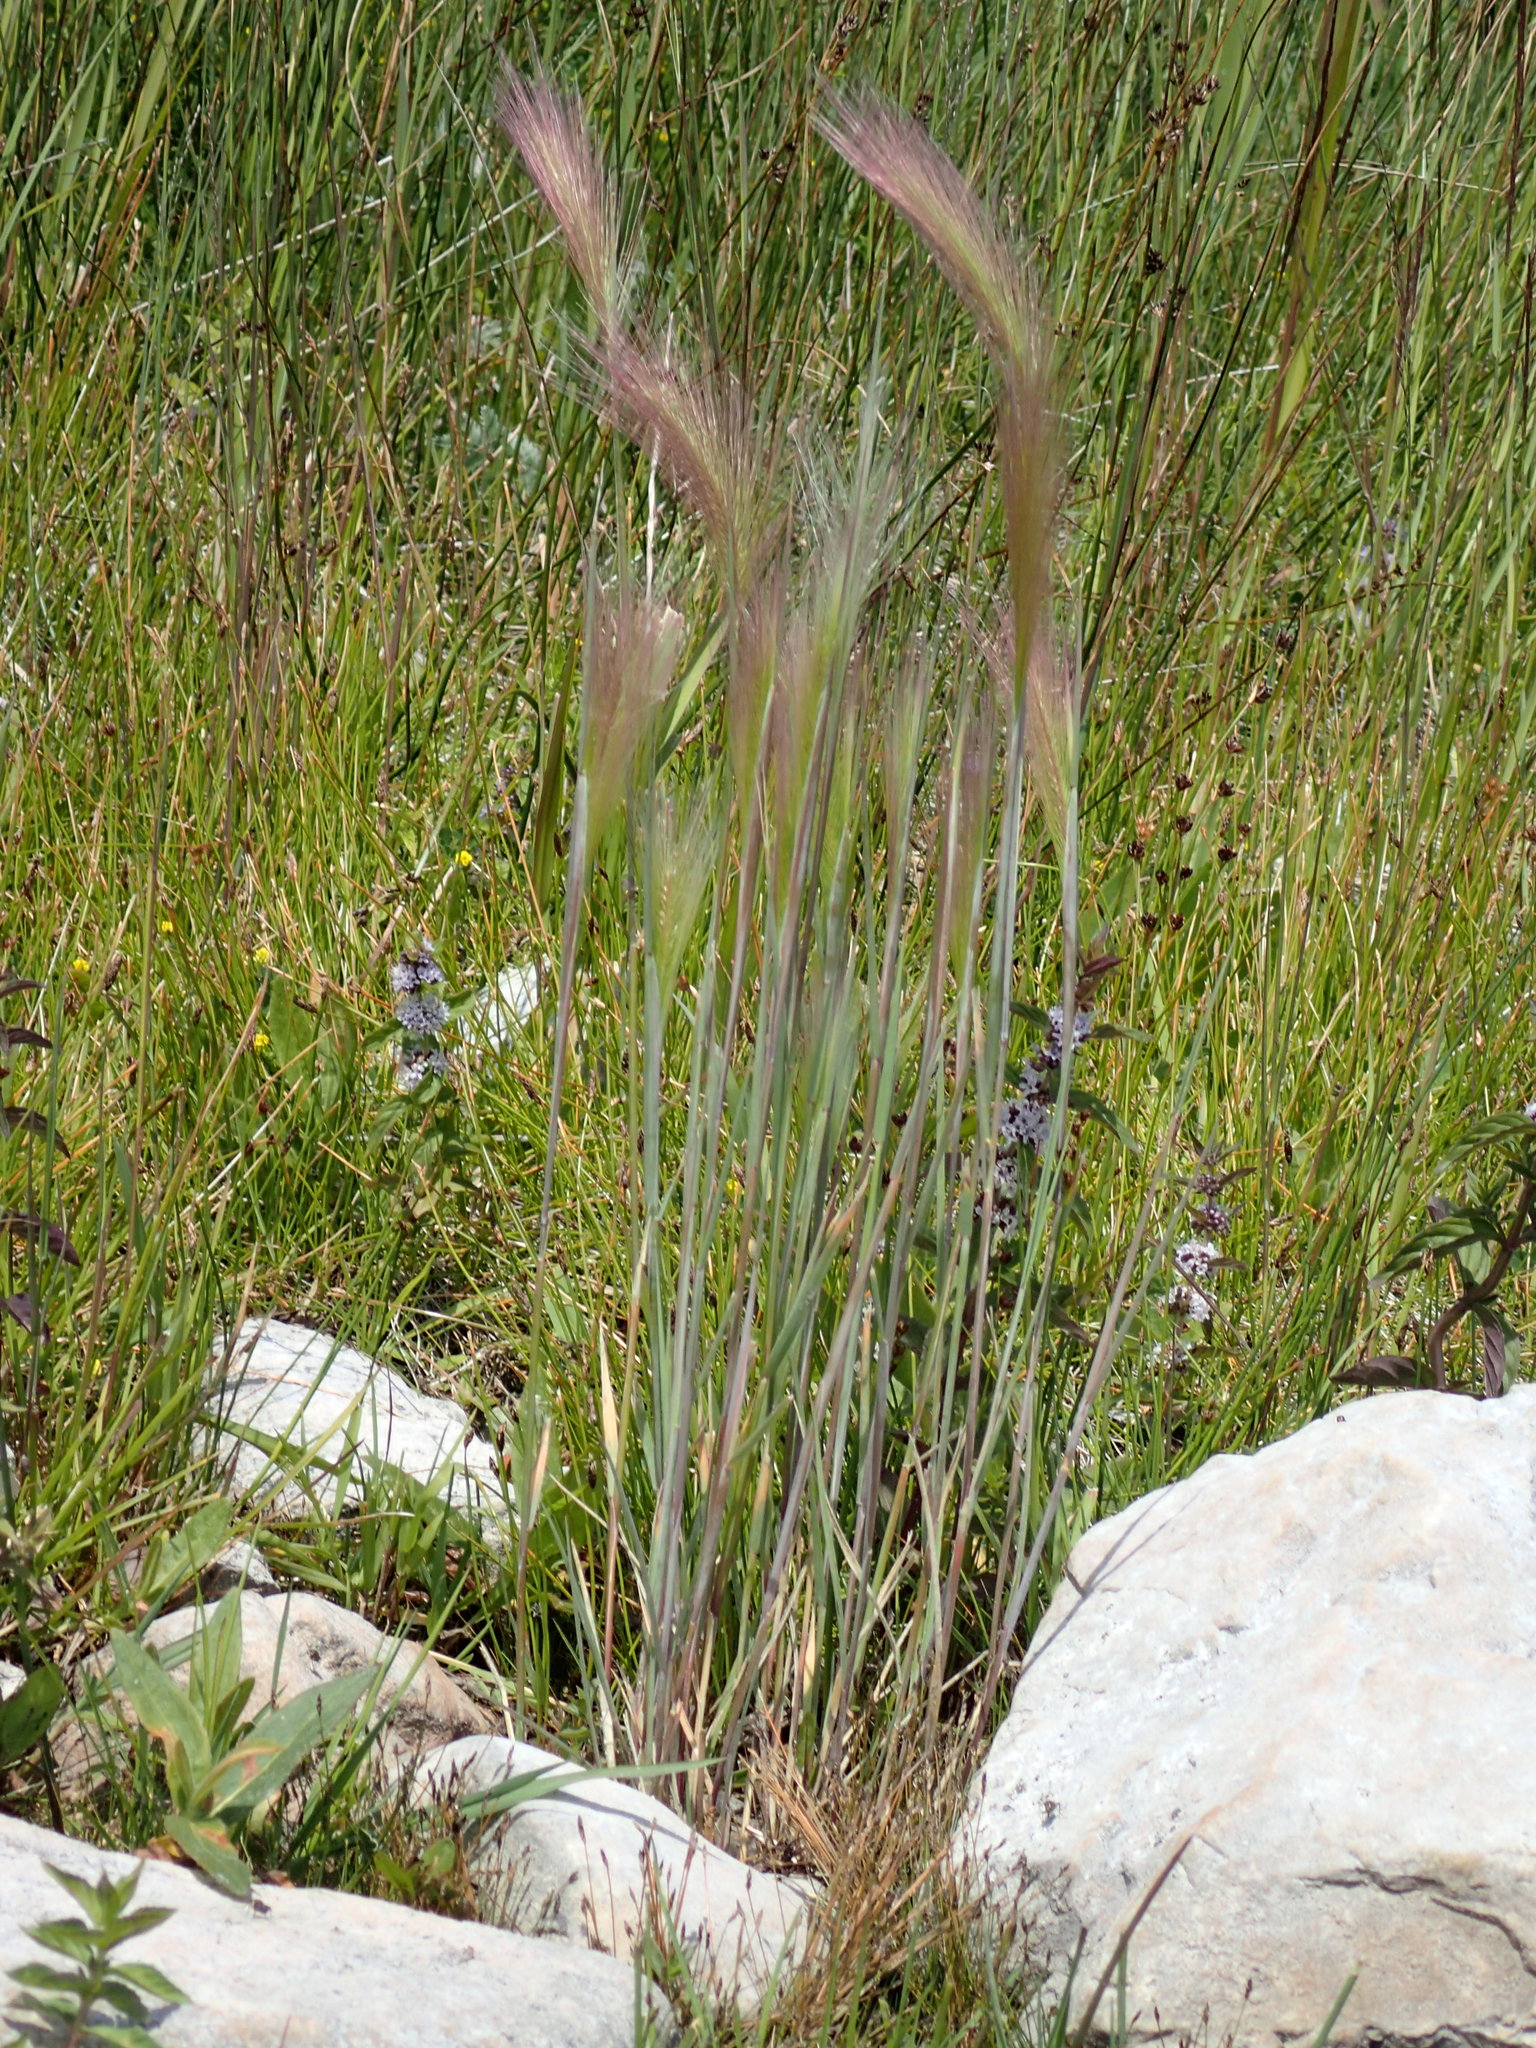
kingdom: Plantae
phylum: Tracheophyta
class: Liliopsida
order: Poales
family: Poaceae
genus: Hordeum
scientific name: Hordeum jubatum
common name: Foxtail barley
